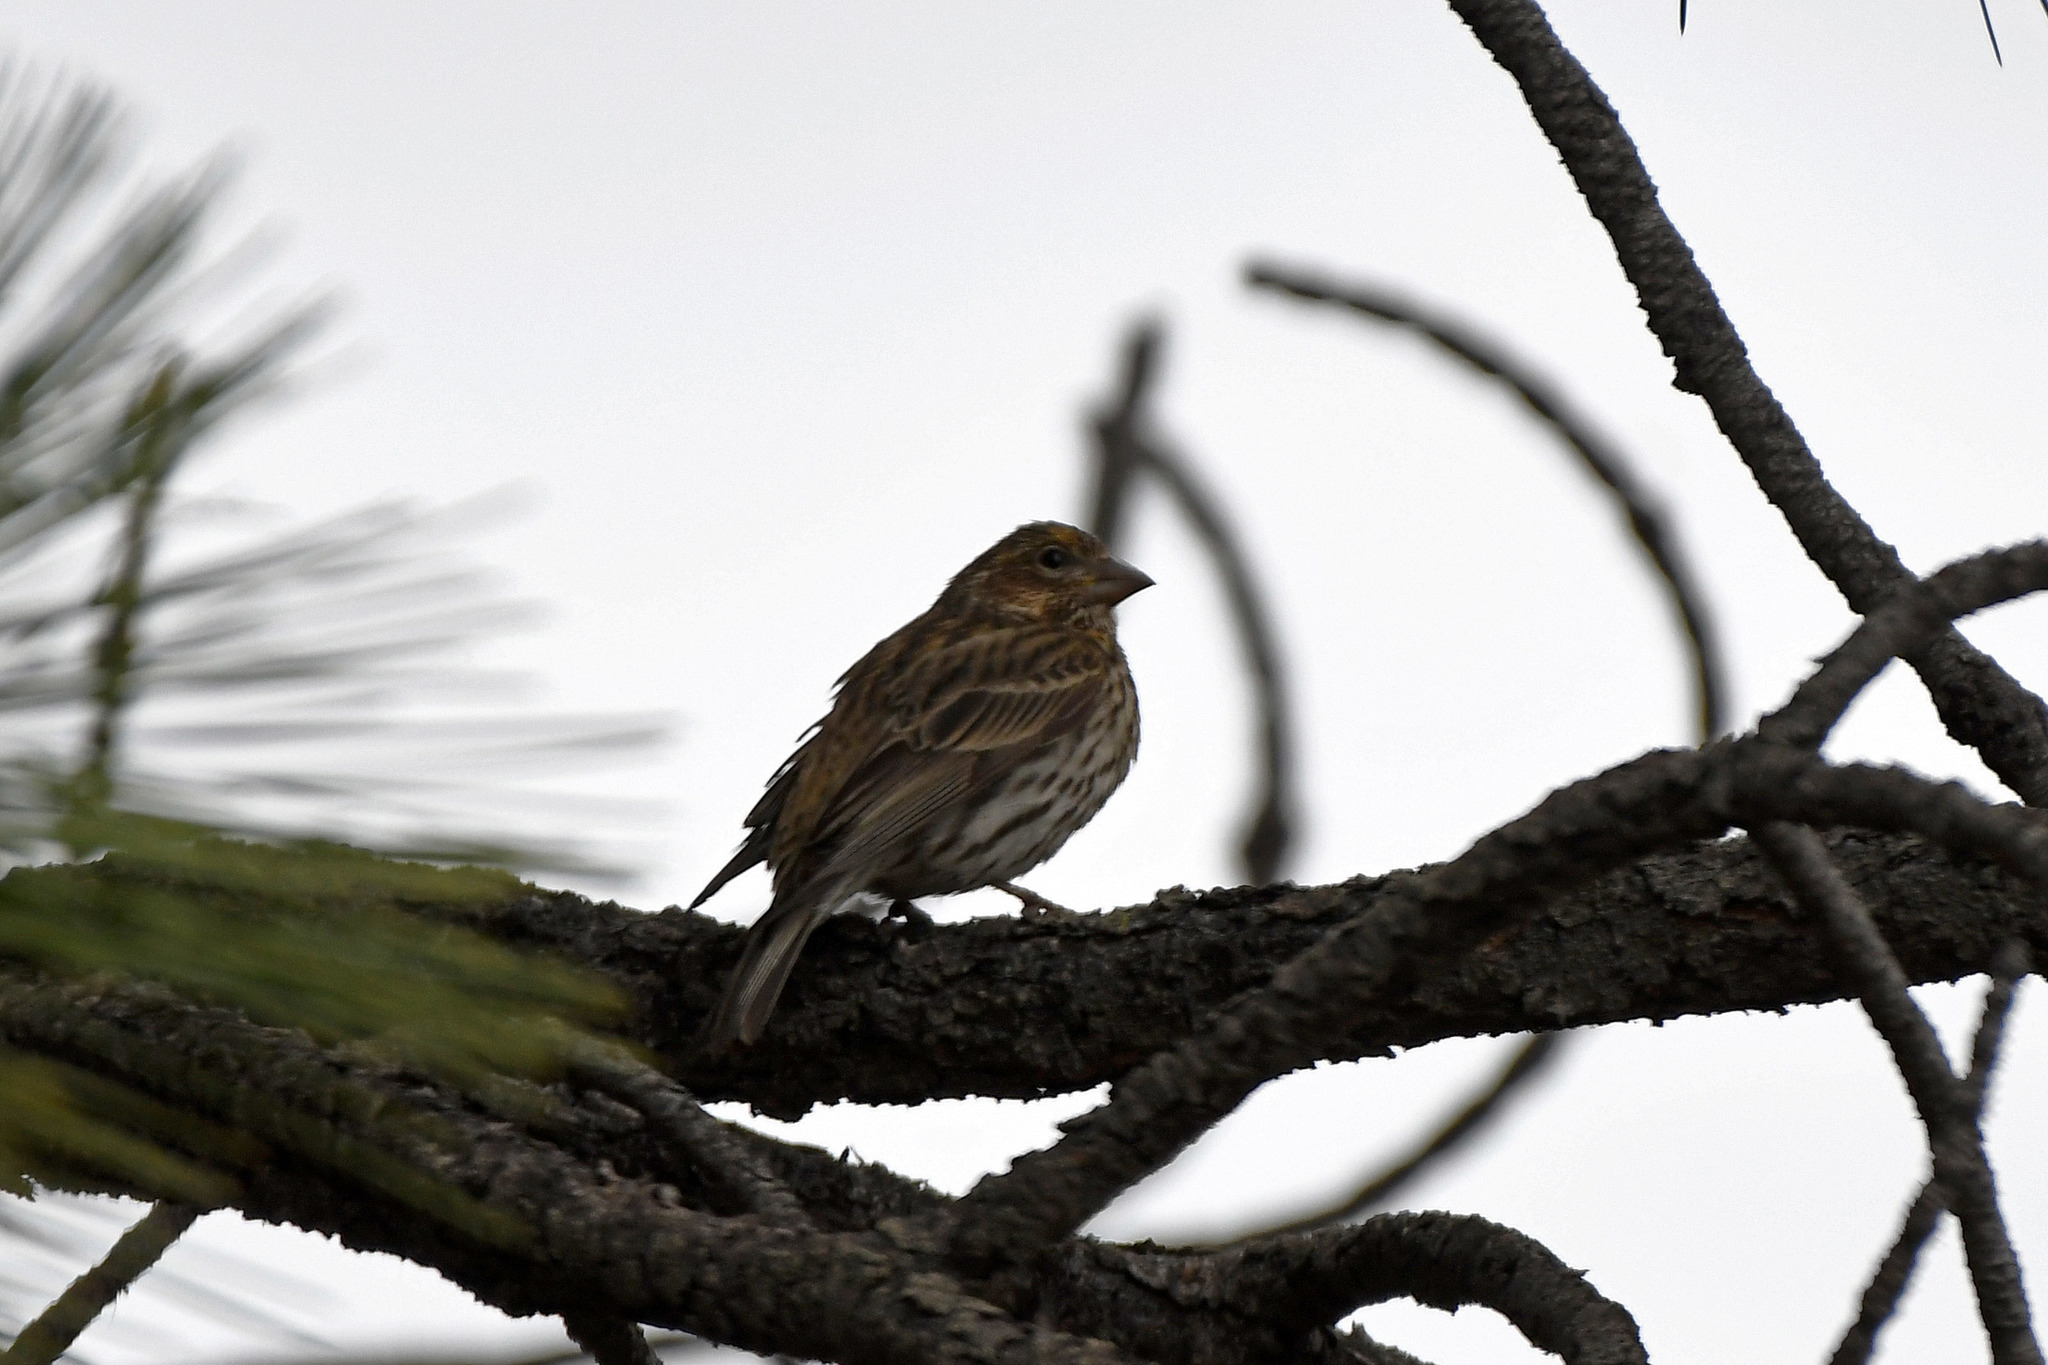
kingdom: Animalia
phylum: Chordata
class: Aves
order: Passeriformes
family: Fringillidae
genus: Haemorhous
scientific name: Haemorhous cassinii
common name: Cassin's finch
